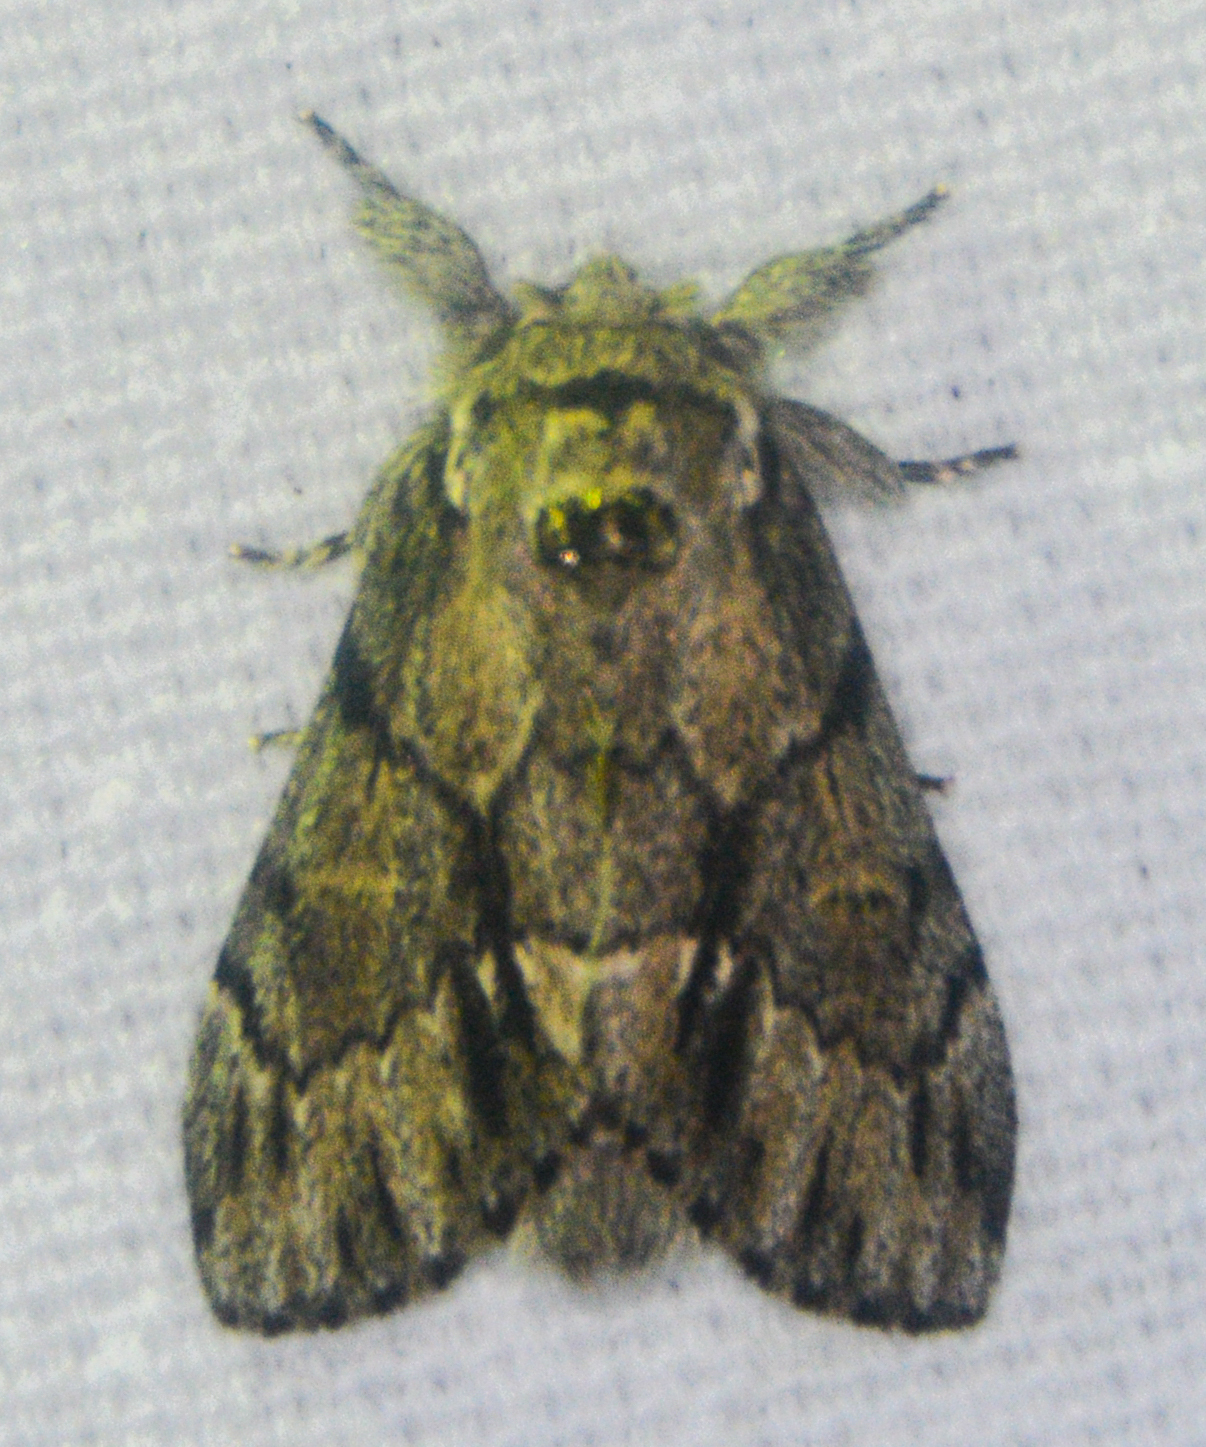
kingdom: Animalia
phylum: Arthropoda
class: Insecta
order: Lepidoptera
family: Notodontidae
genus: Paraeschra
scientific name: Paraeschra georgica
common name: Georgian prominent
